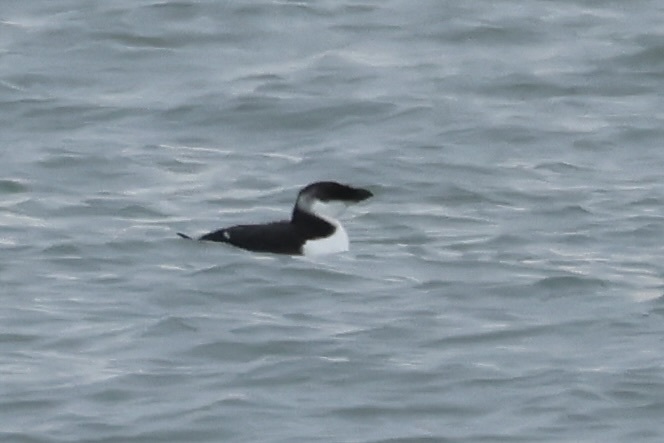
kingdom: Animalia
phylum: Chordata
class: Aves
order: Charadriiformes
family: Alcidae
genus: Alca
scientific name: Alca torda
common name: Razorbill
